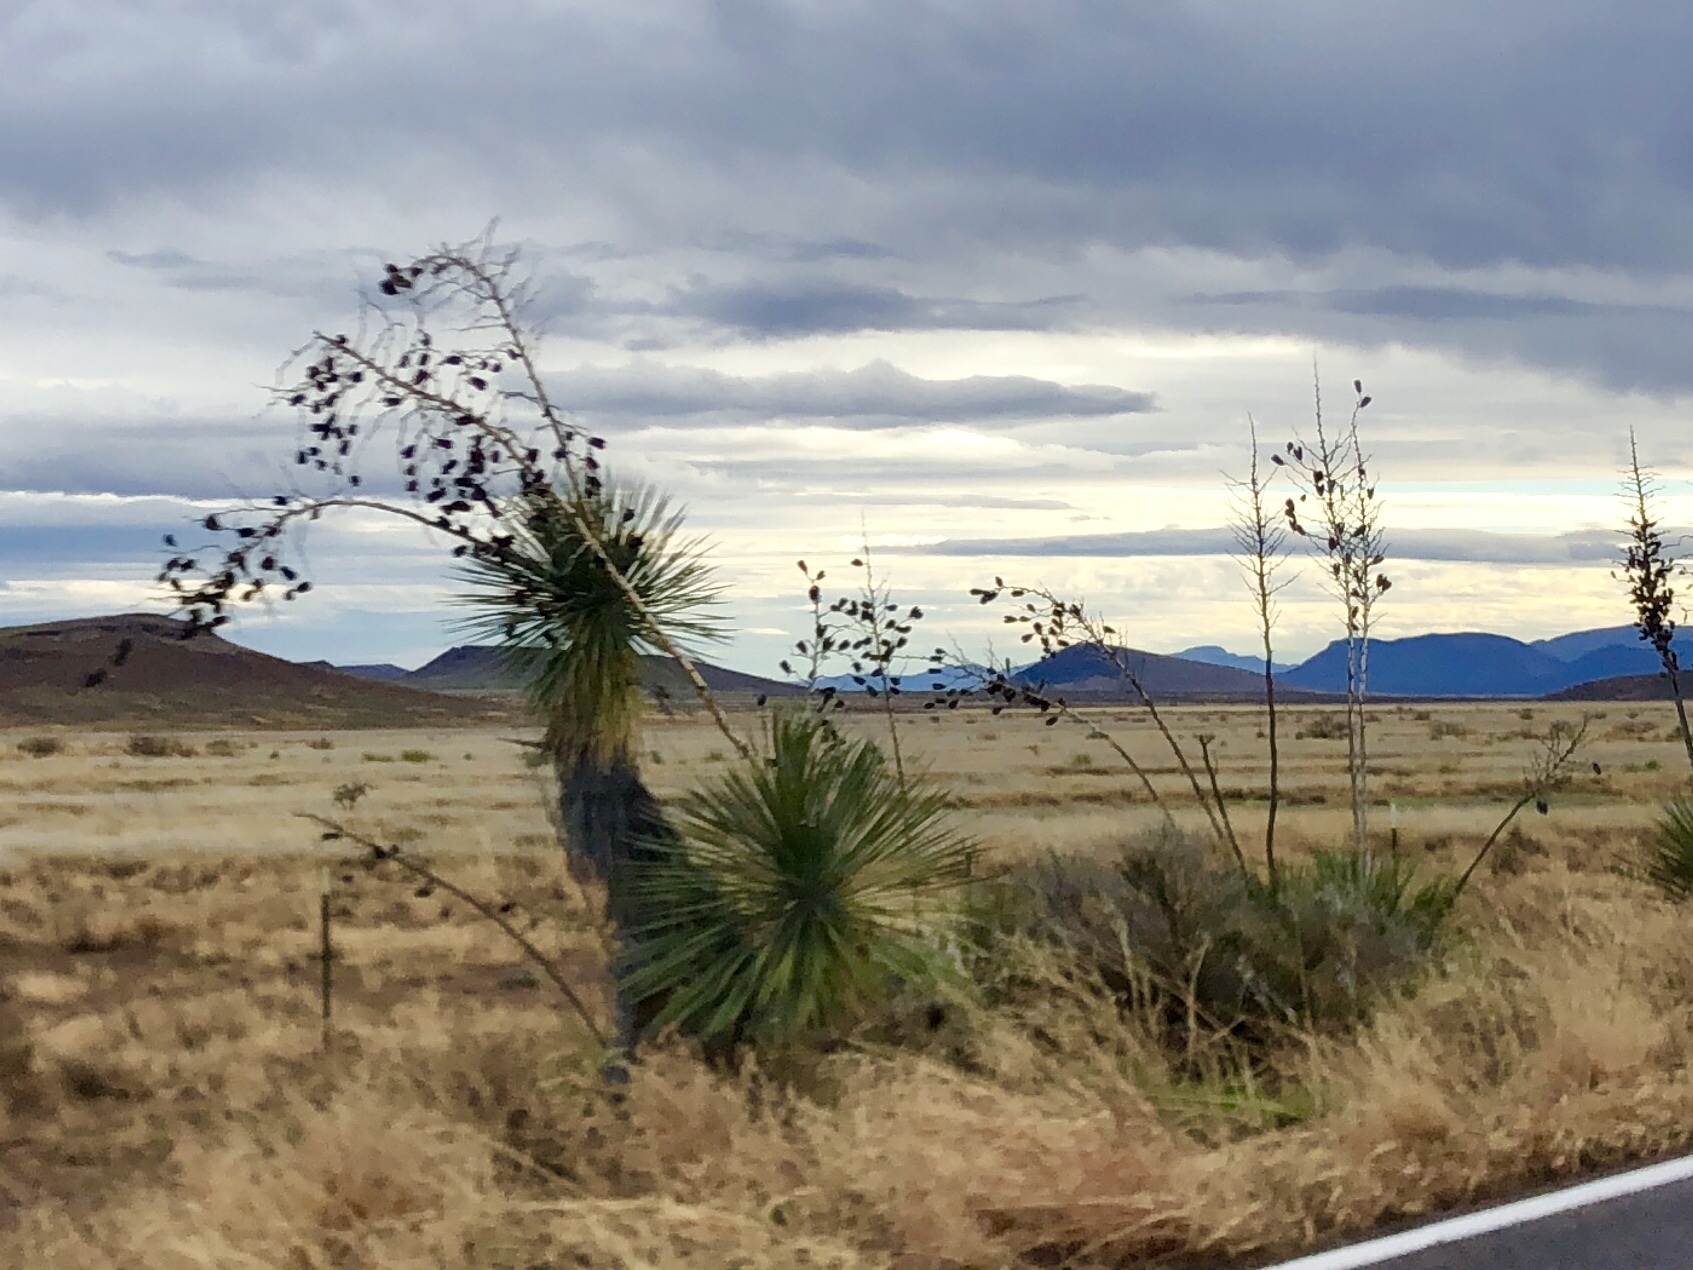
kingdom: Plantae
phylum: Tracheophyta
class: Liliopsida
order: Asparagales
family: Asparagaceae
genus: Yucca
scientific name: Yucca elata
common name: Palmella
